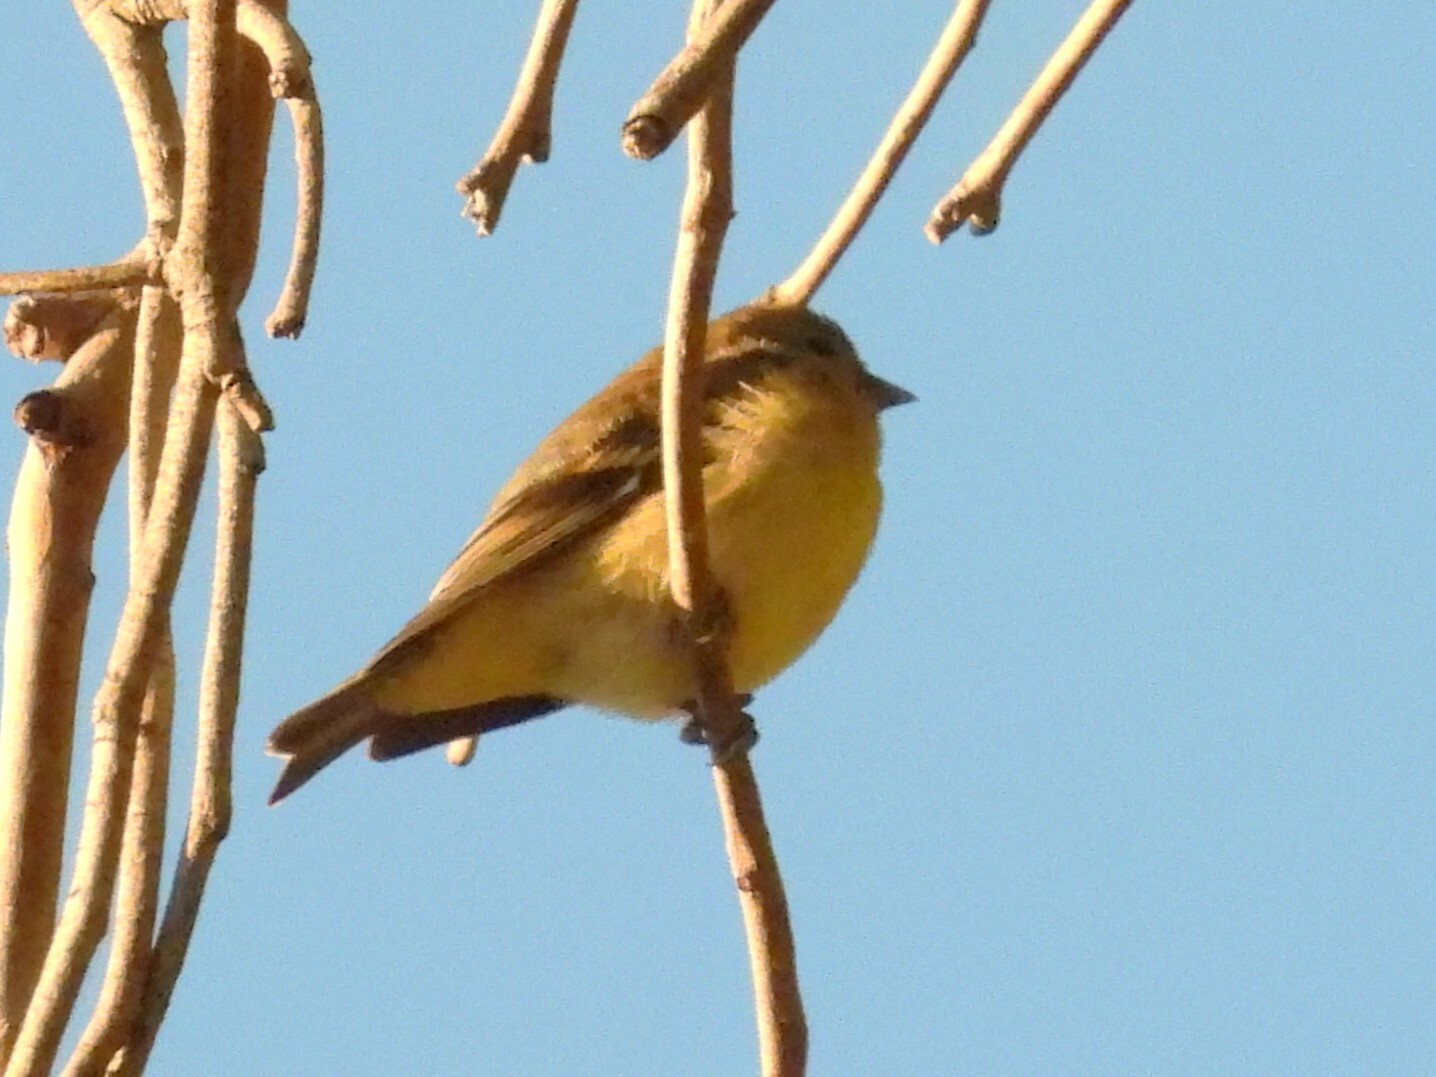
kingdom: Animalia
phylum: Chordata
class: Aves
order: Passeriformes
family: Fringillidae
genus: Spinus
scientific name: Spinus psaltria
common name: Lesser goldfinch
